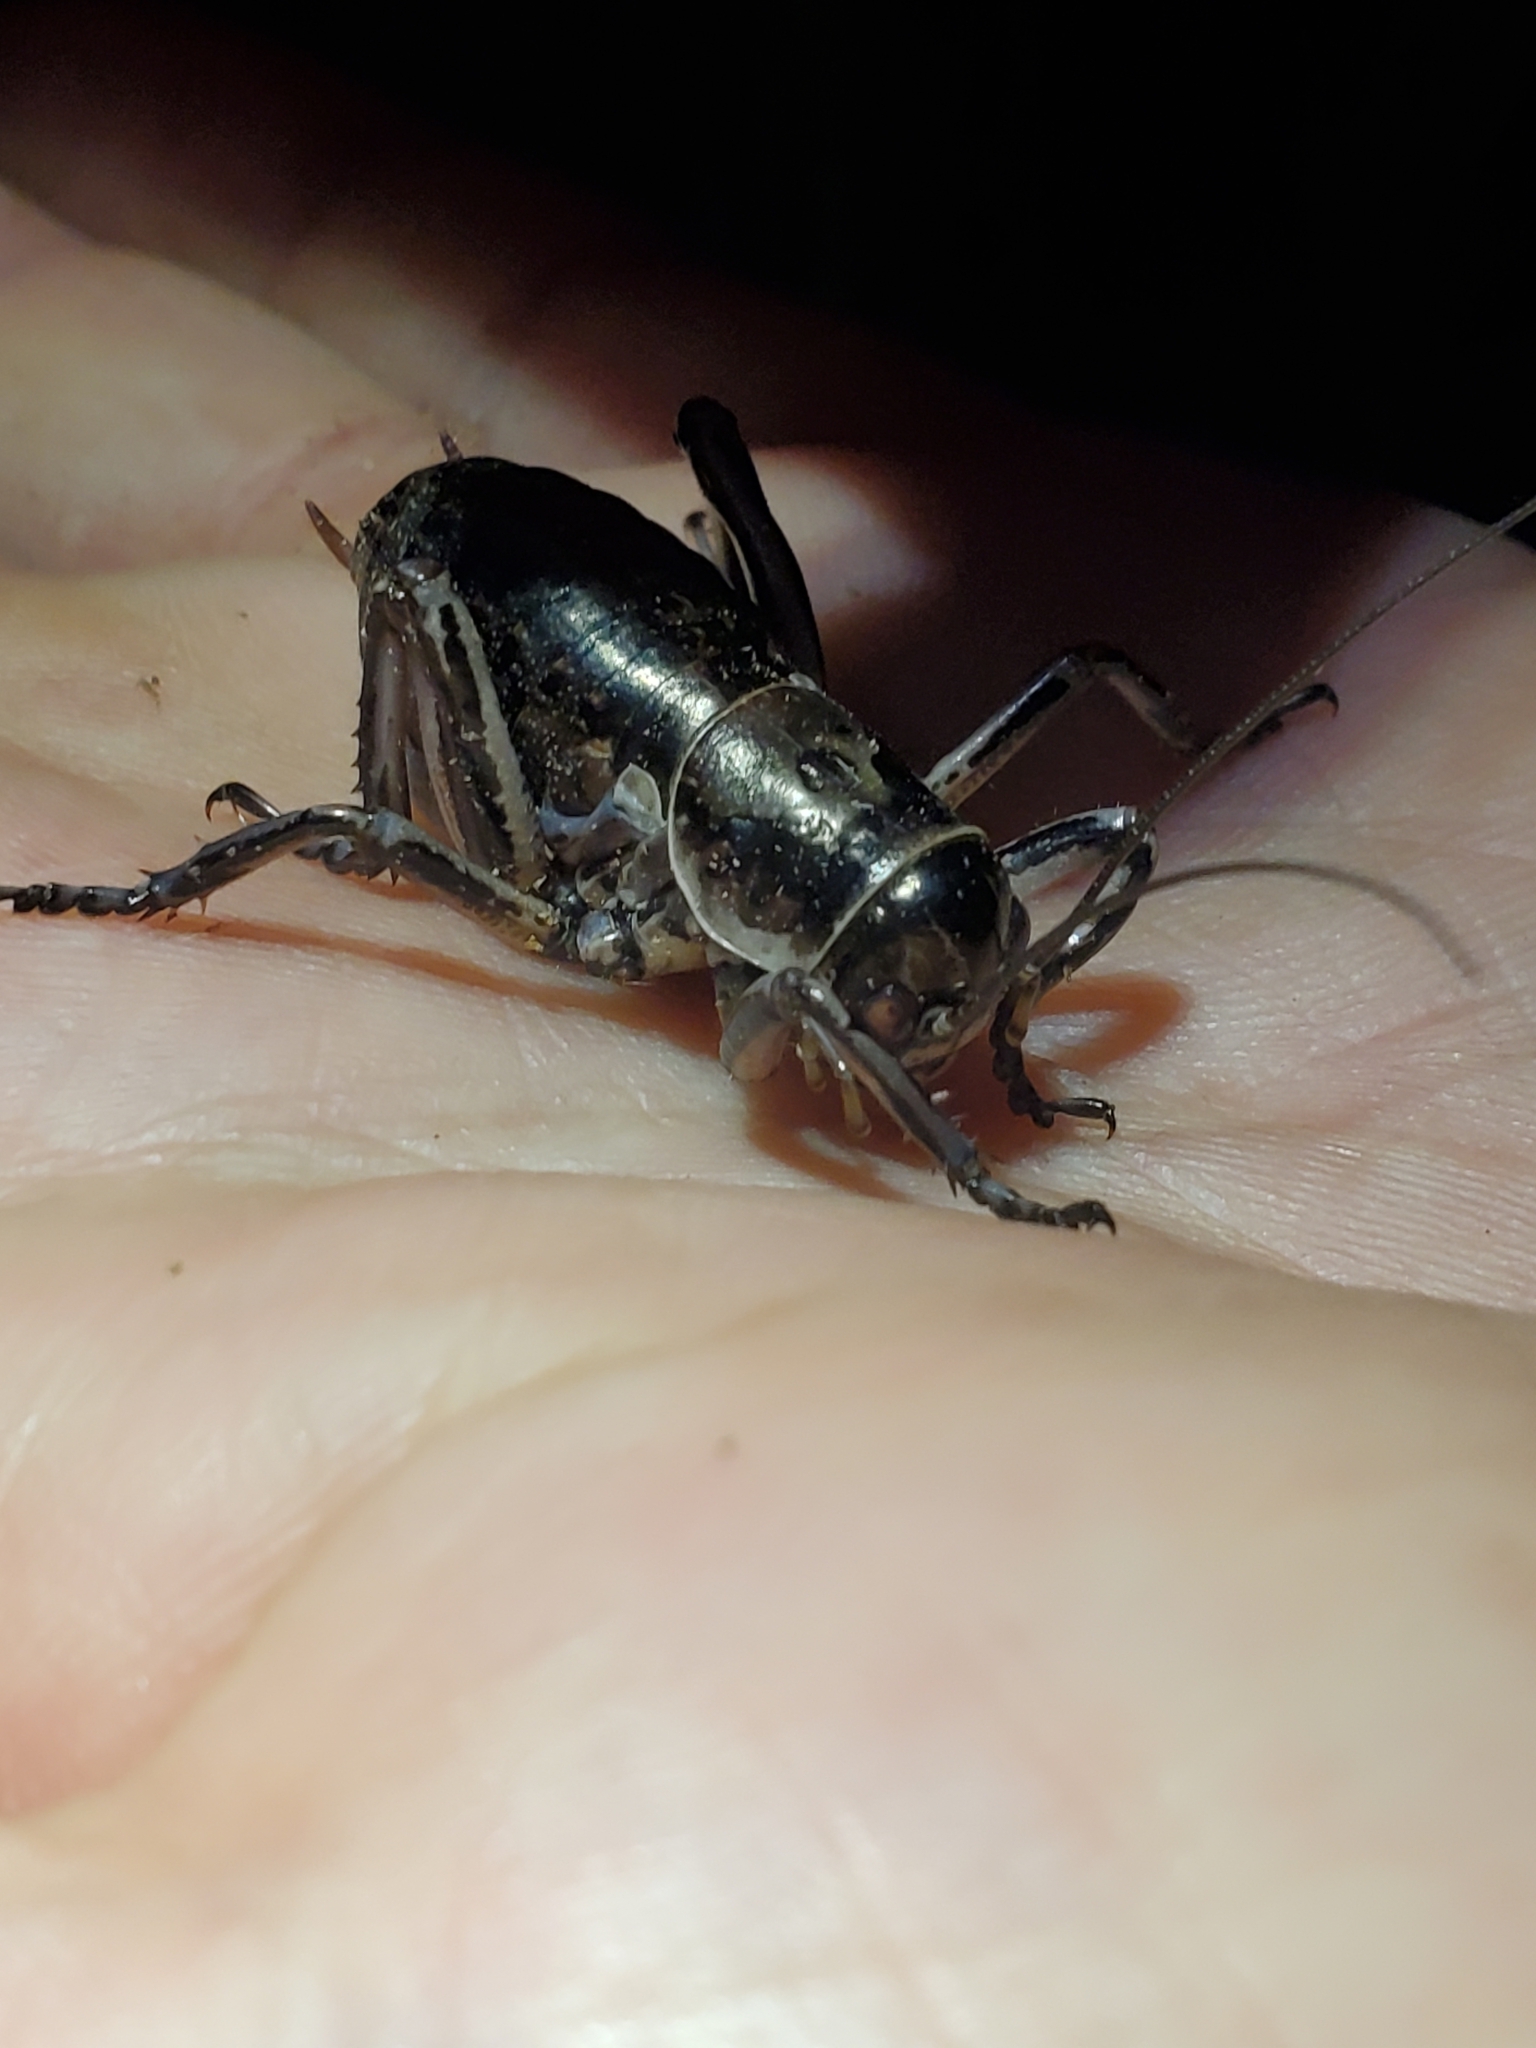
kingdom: Animalia
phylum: Arthropoda
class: Insecta
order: Orthoptera
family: Prophalangopsidae
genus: Cyphoderris
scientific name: Cyphoderris monstrosa
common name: Great grig
